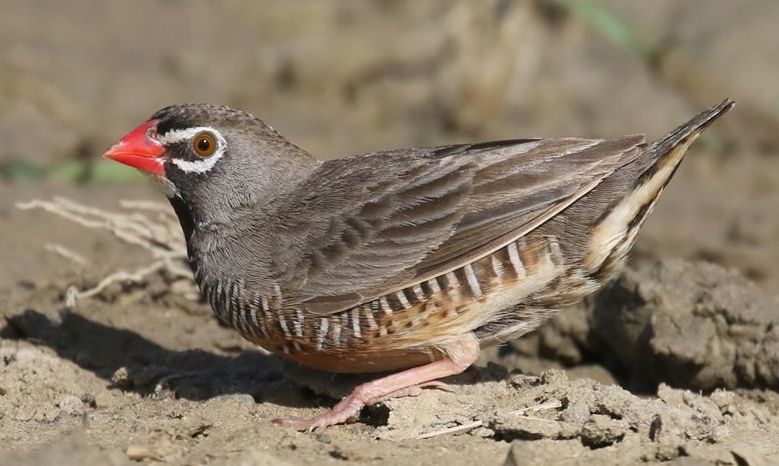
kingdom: Animalia
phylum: Chordata
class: Aves
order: Passeriformes
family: Estrildidae
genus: Ortygospiza
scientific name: Ortygospiza atricollis
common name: Quailfinch
